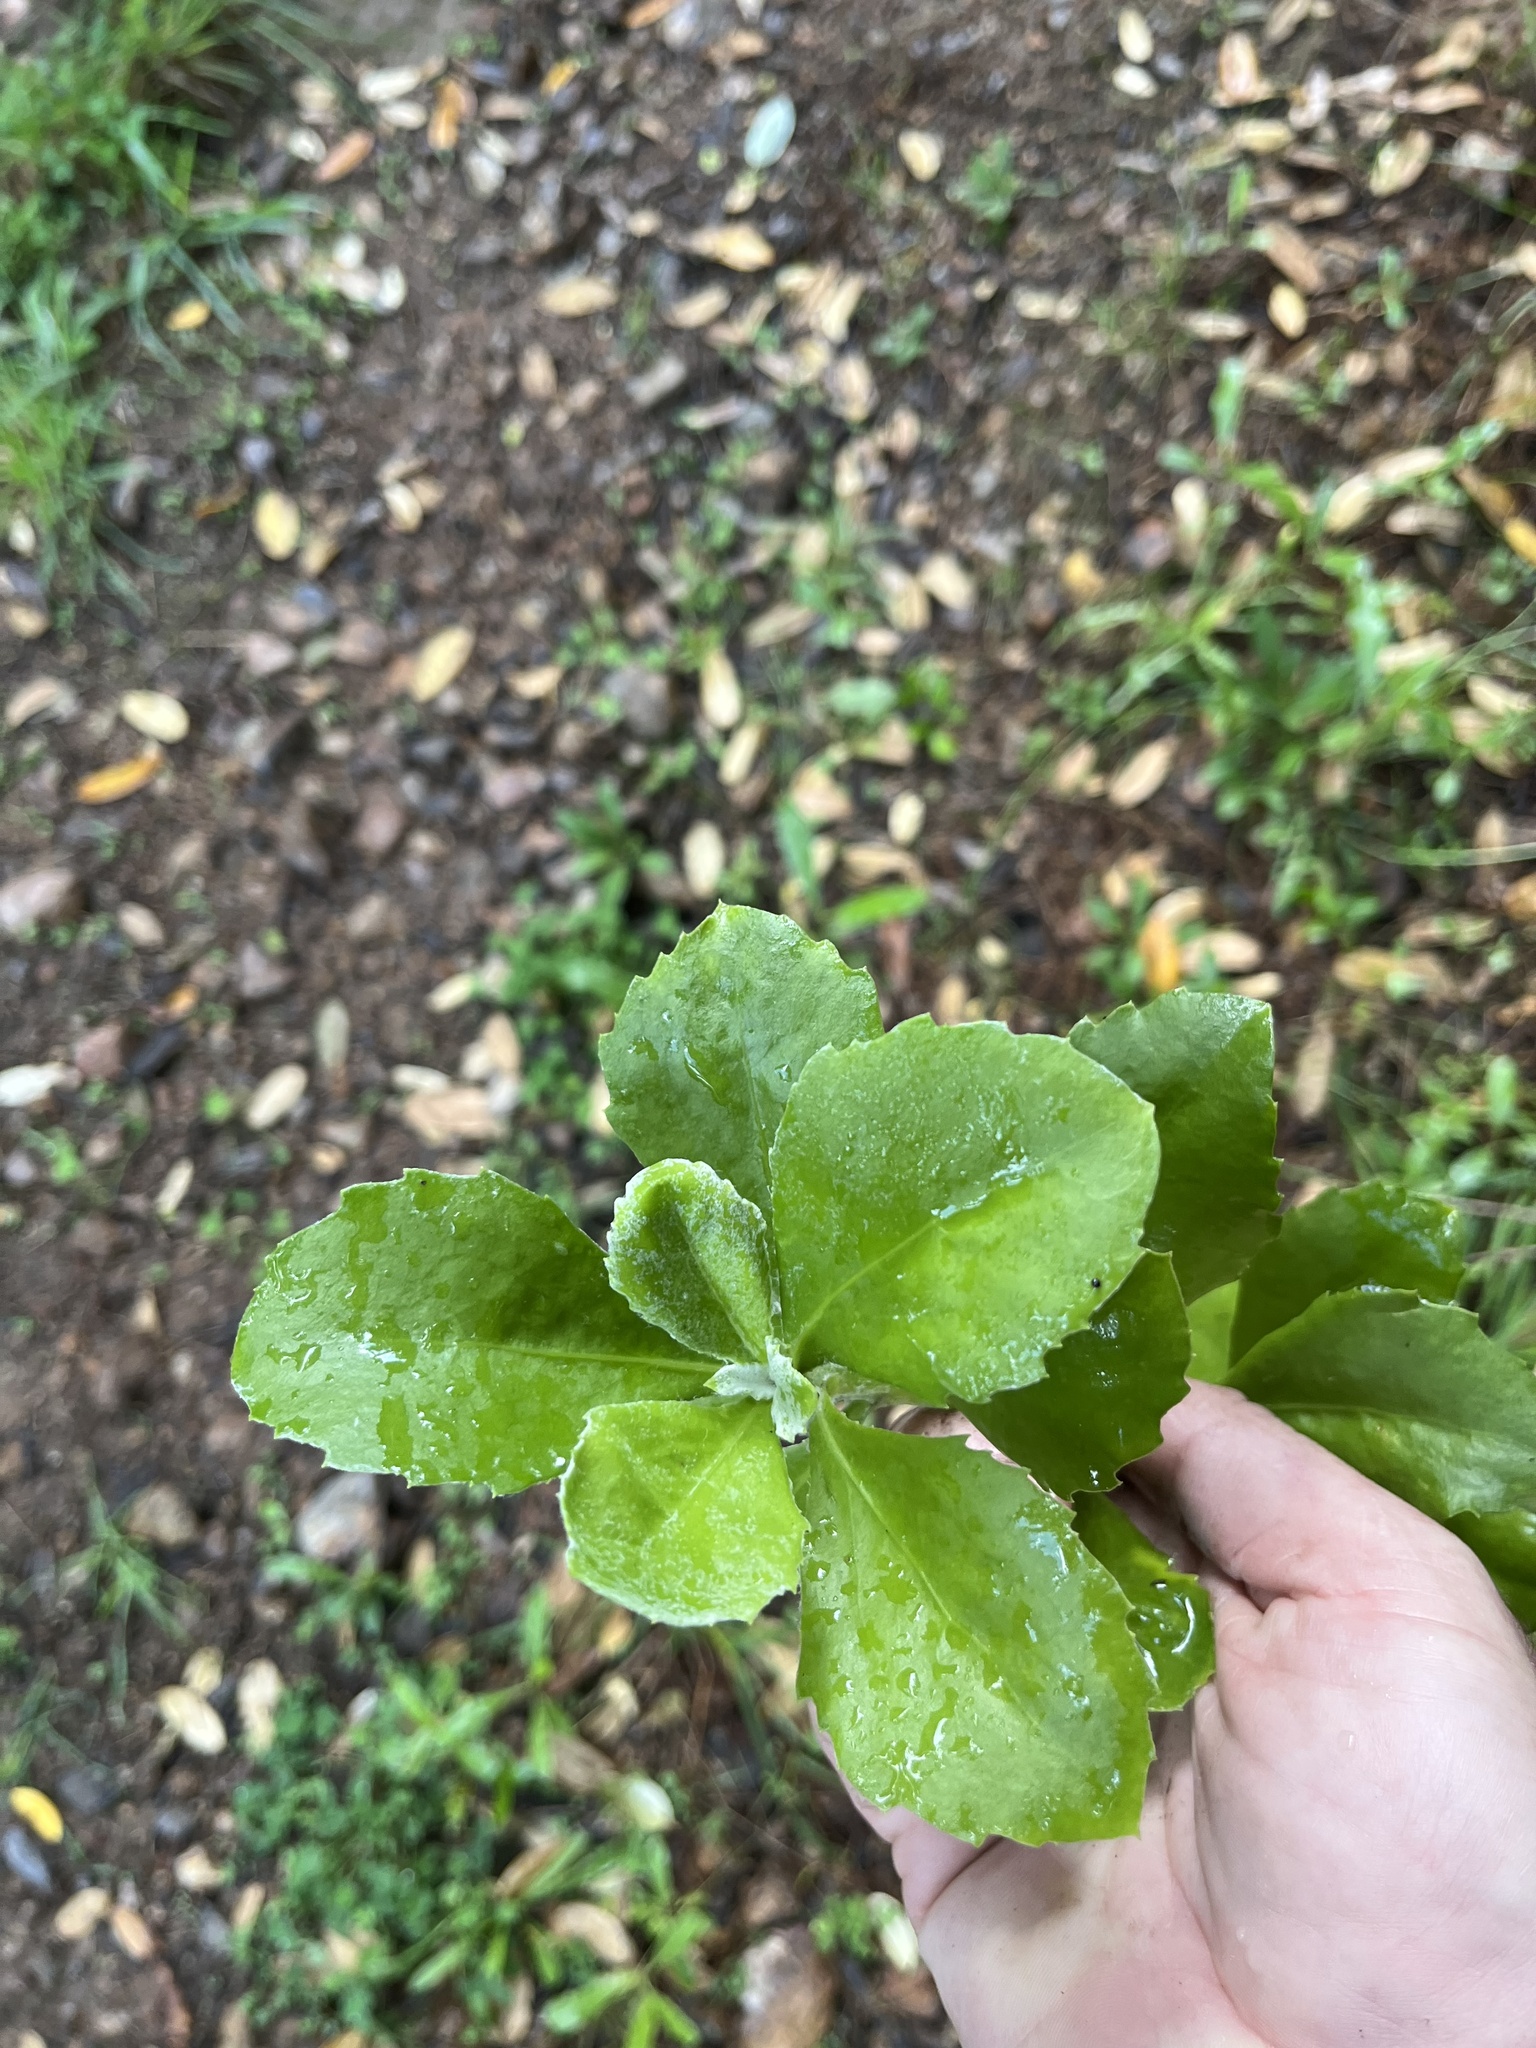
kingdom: Plantae
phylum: Tracheophyta
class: Magnoliopsida
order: Asterales
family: Asteraceae
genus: Osteospermum
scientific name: Osteospermum moniliferum
